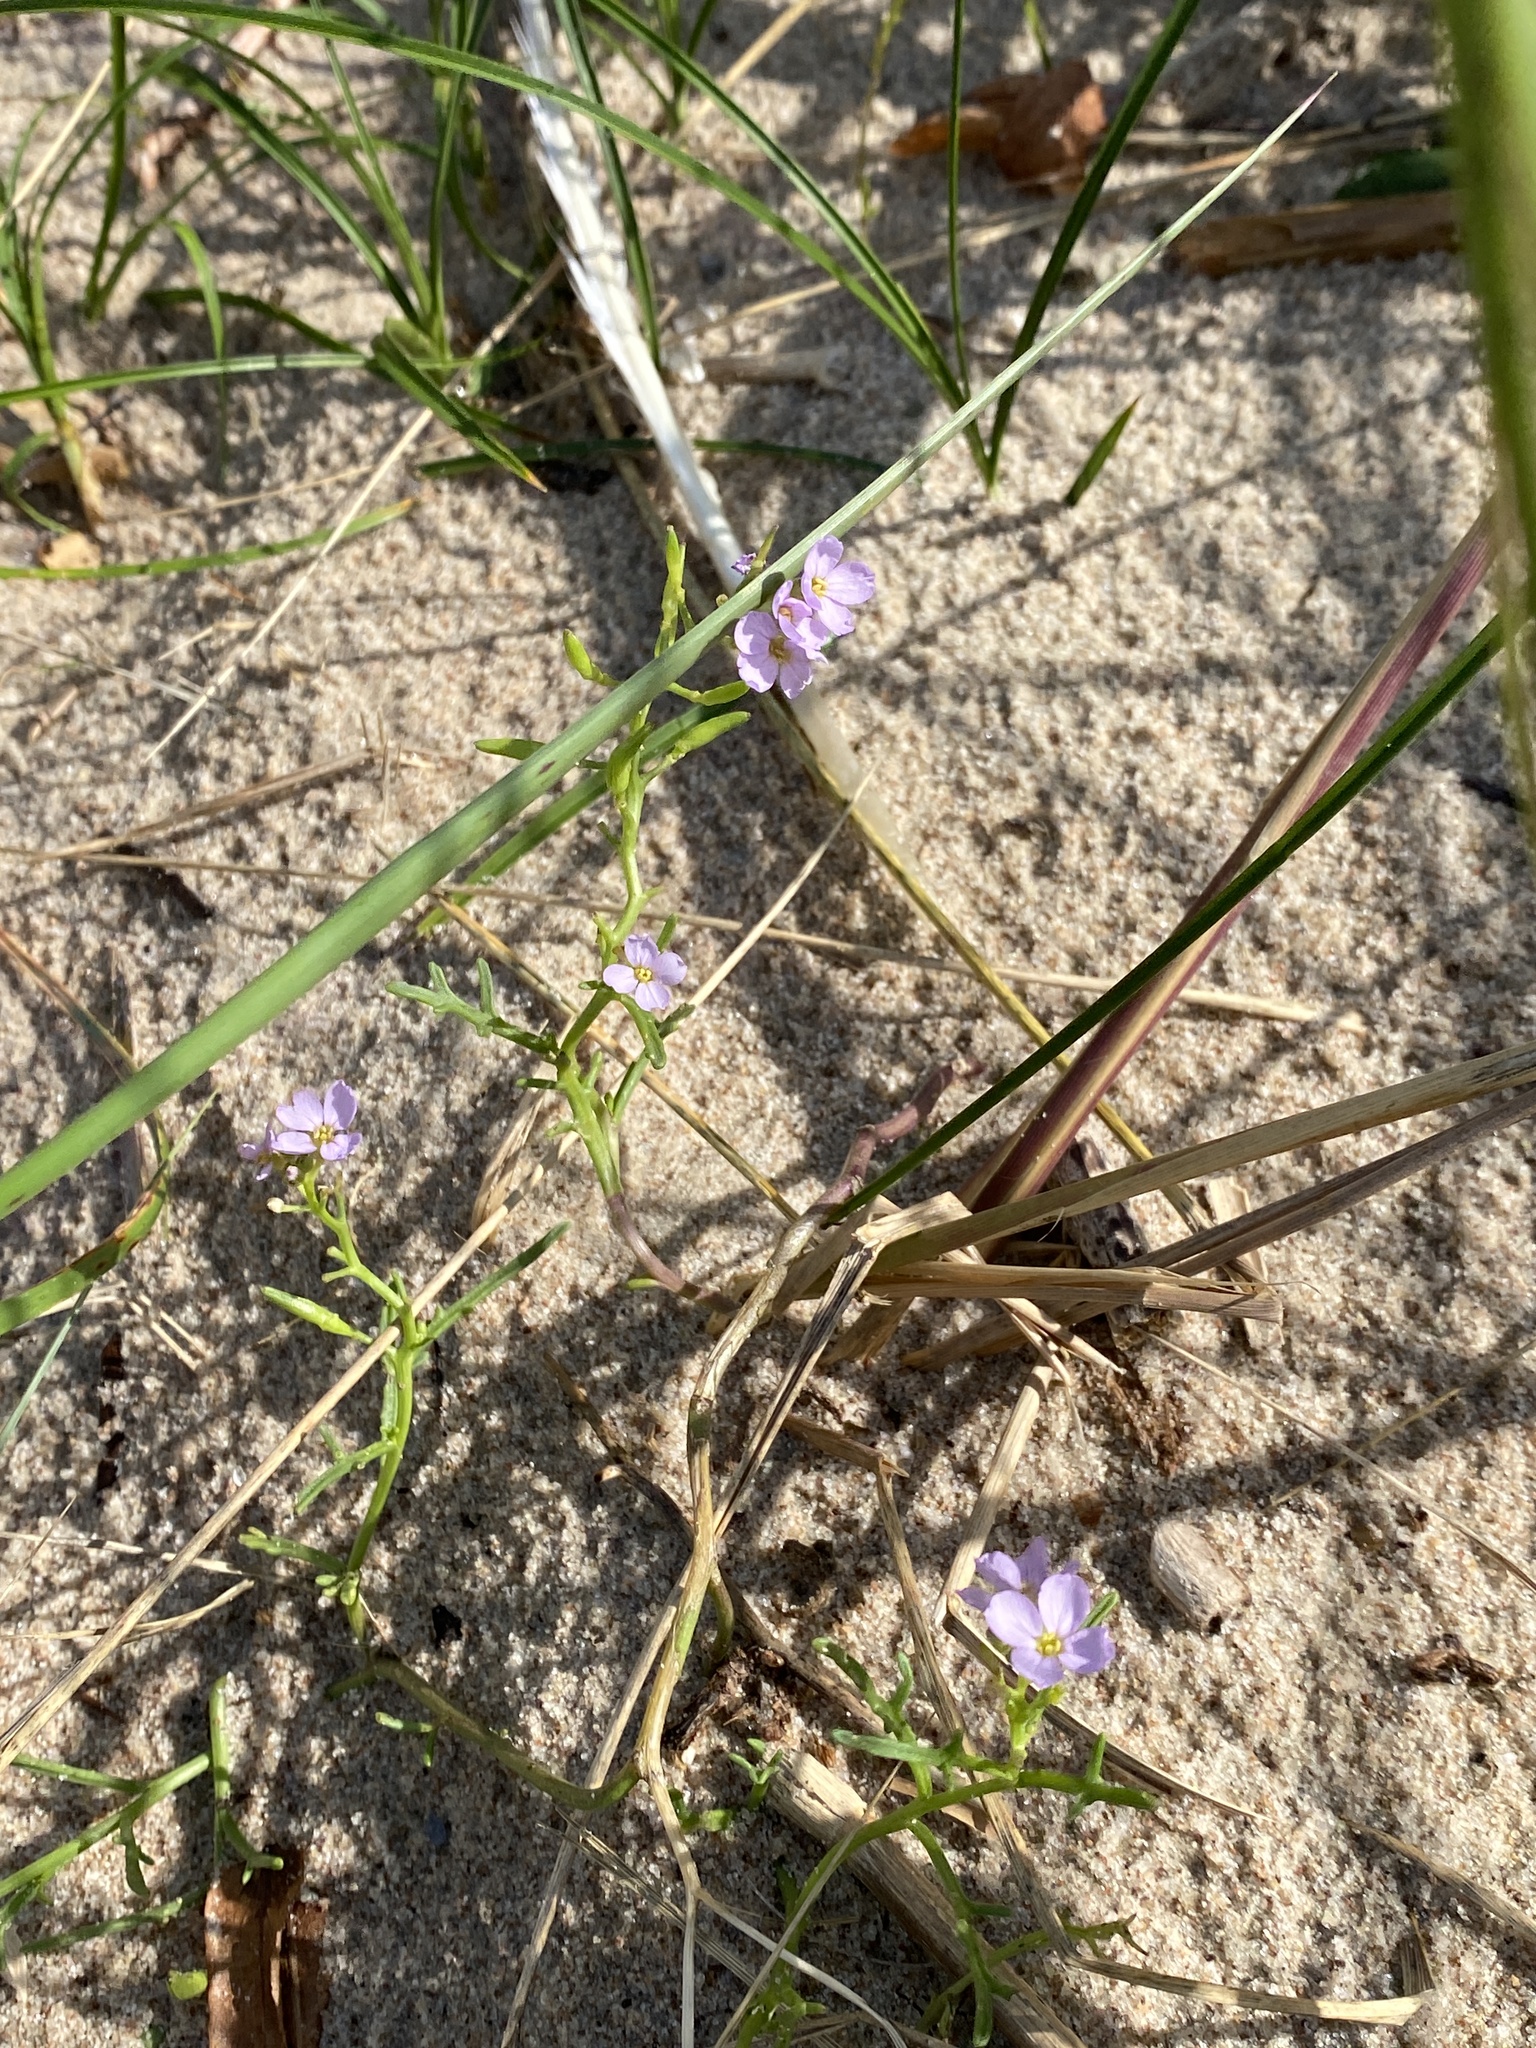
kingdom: Plantae
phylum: Tracheophyta
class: Magnoliopsida
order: Brassicales
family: Brassicaceae
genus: Cakile
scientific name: Cakile maritima
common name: Sea rocket
